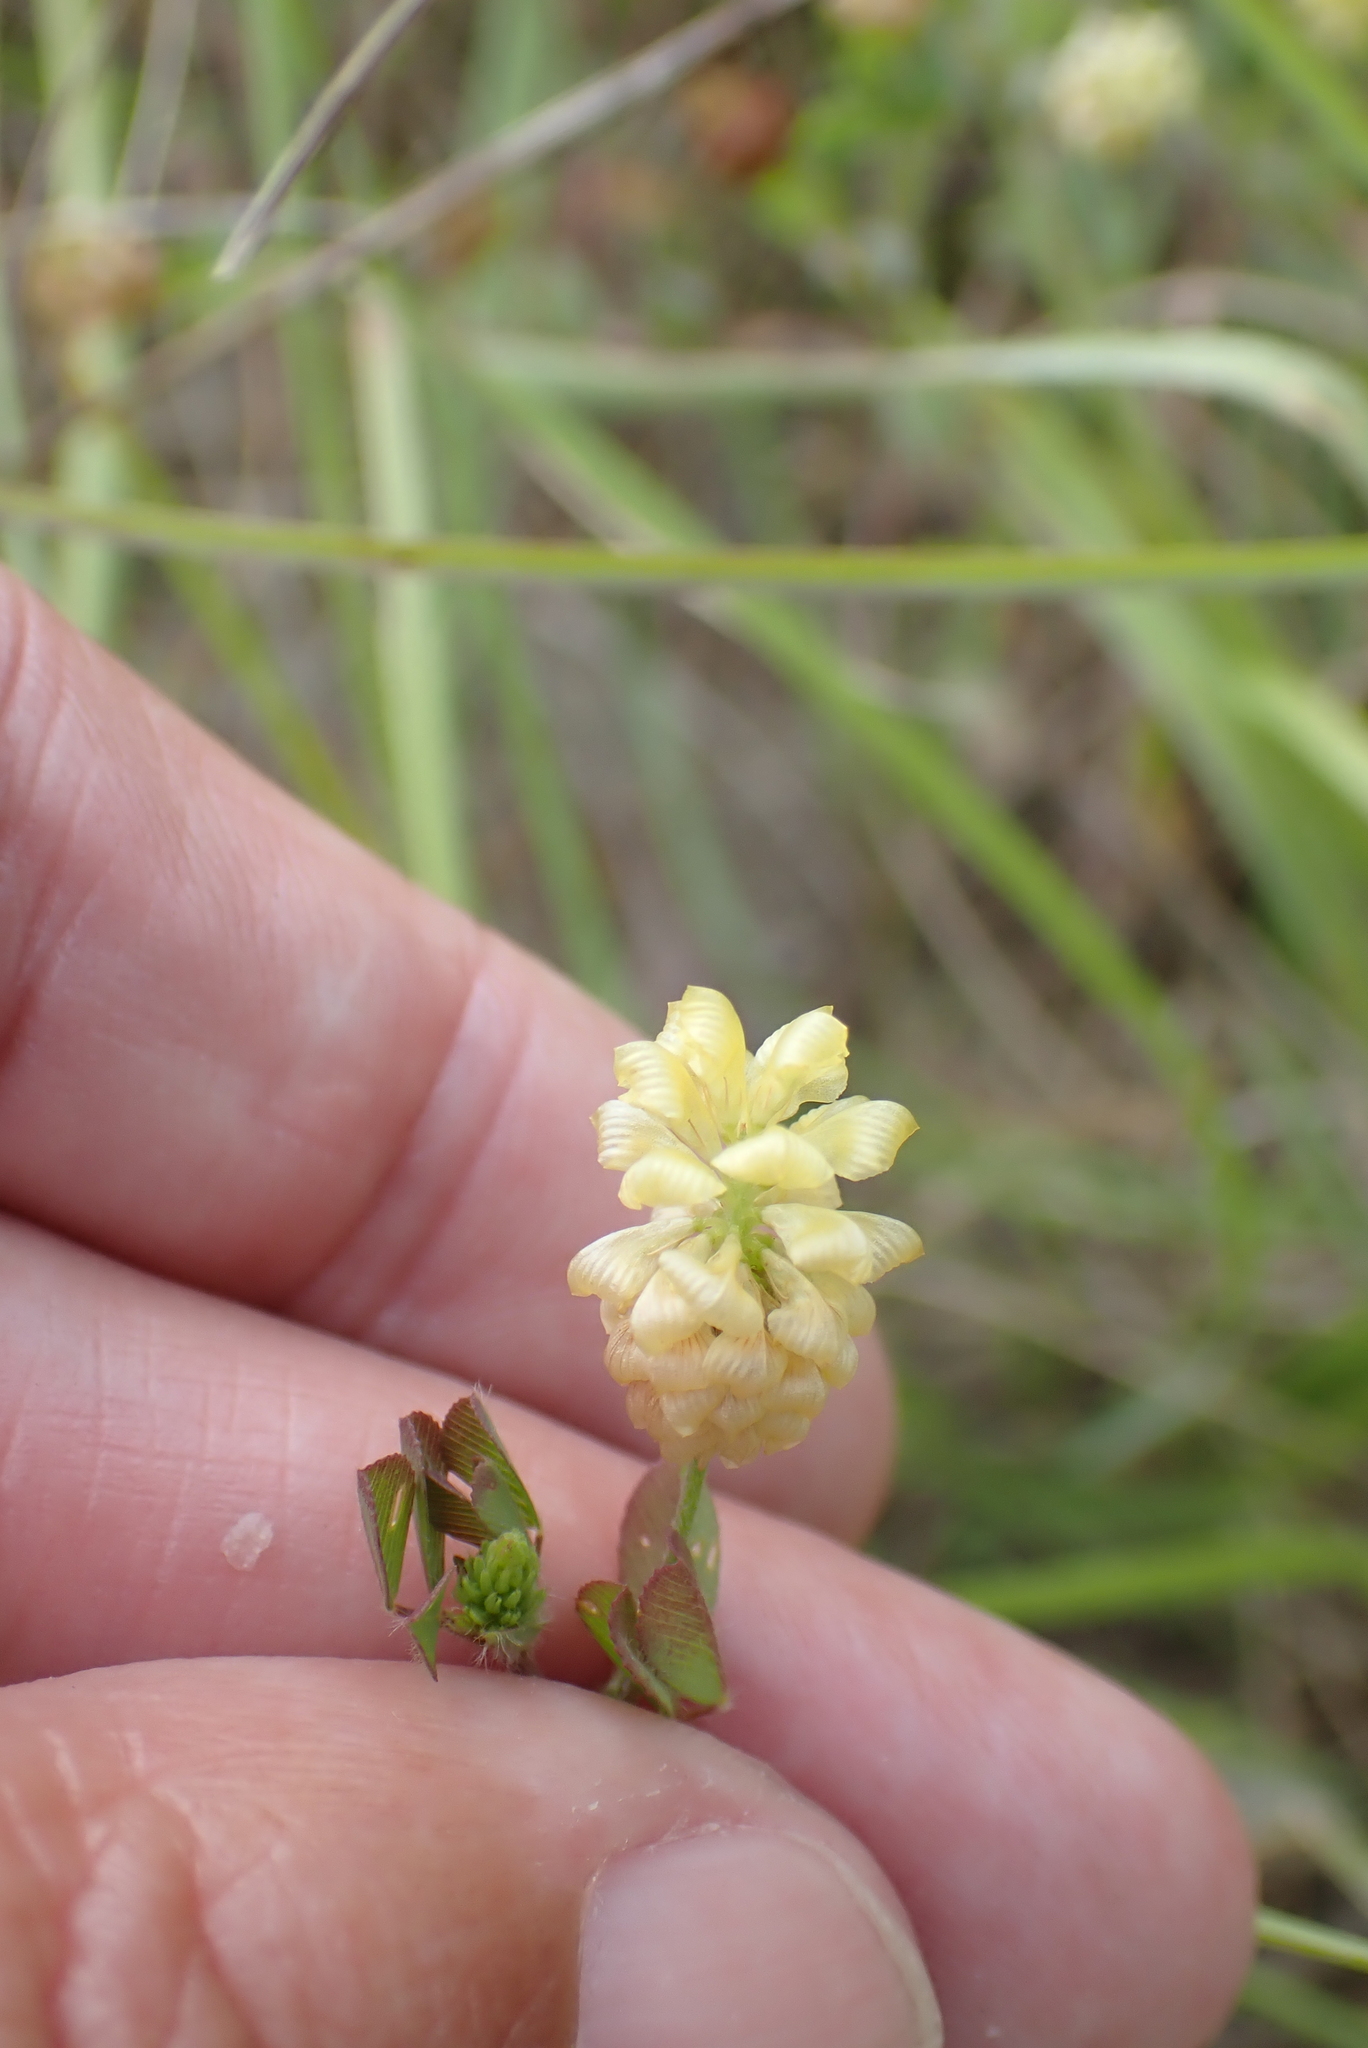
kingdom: Plantae
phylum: Tracheophyta
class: Magnoliopsida
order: Fabales
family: Fabaceae
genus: Trifolium
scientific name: Trifolium campestre
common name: Field clover
